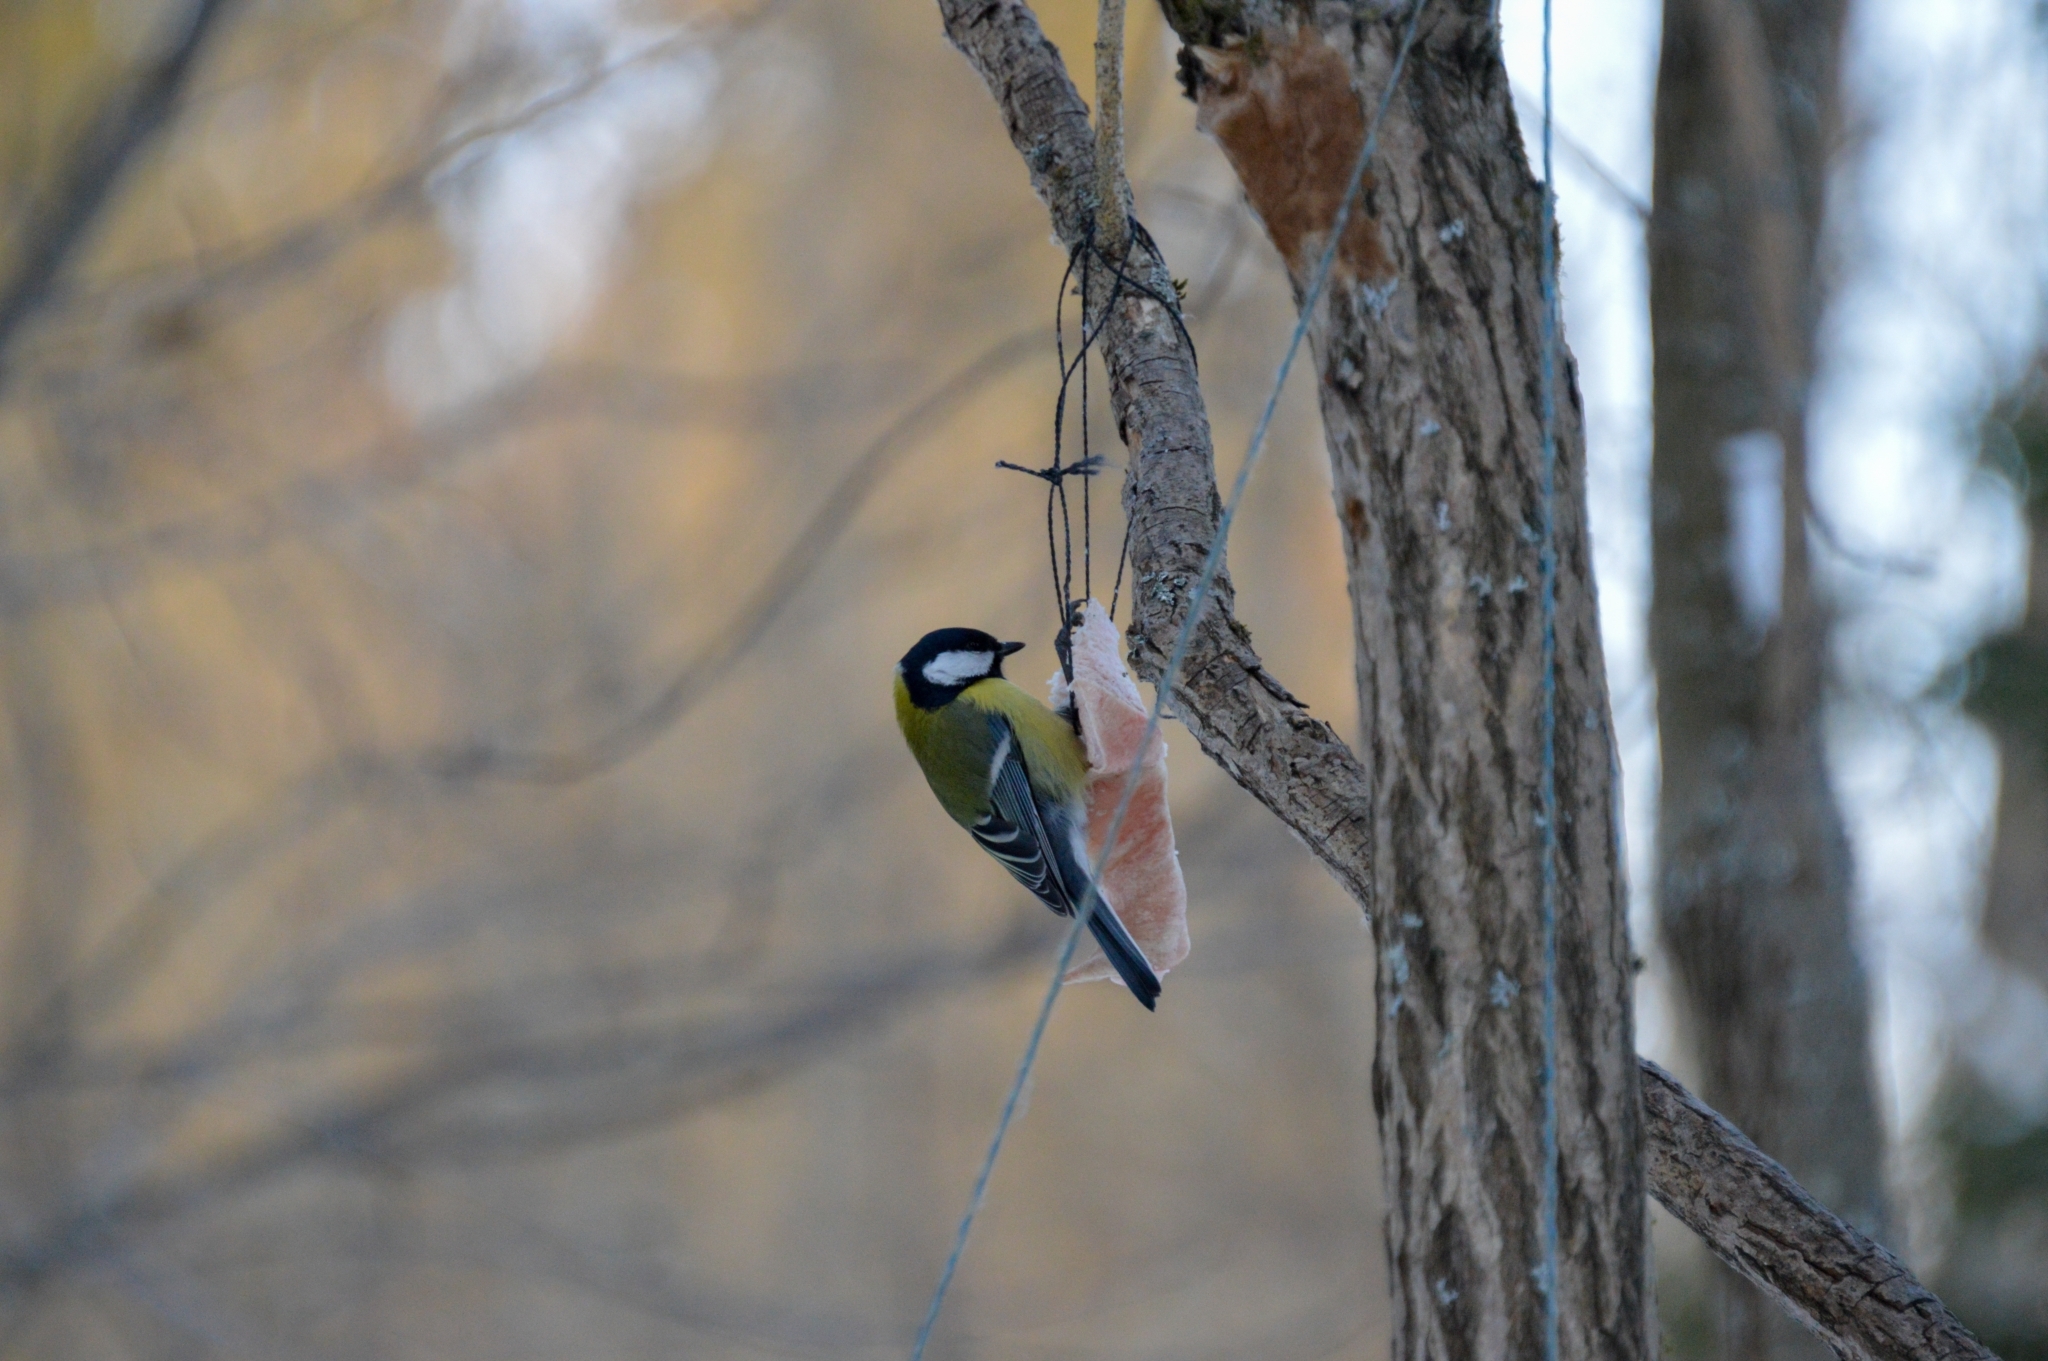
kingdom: Animalia
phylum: Chordata
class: Aves
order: Passeriformes
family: Paridae
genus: Parus
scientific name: Parus major
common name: Great tit
